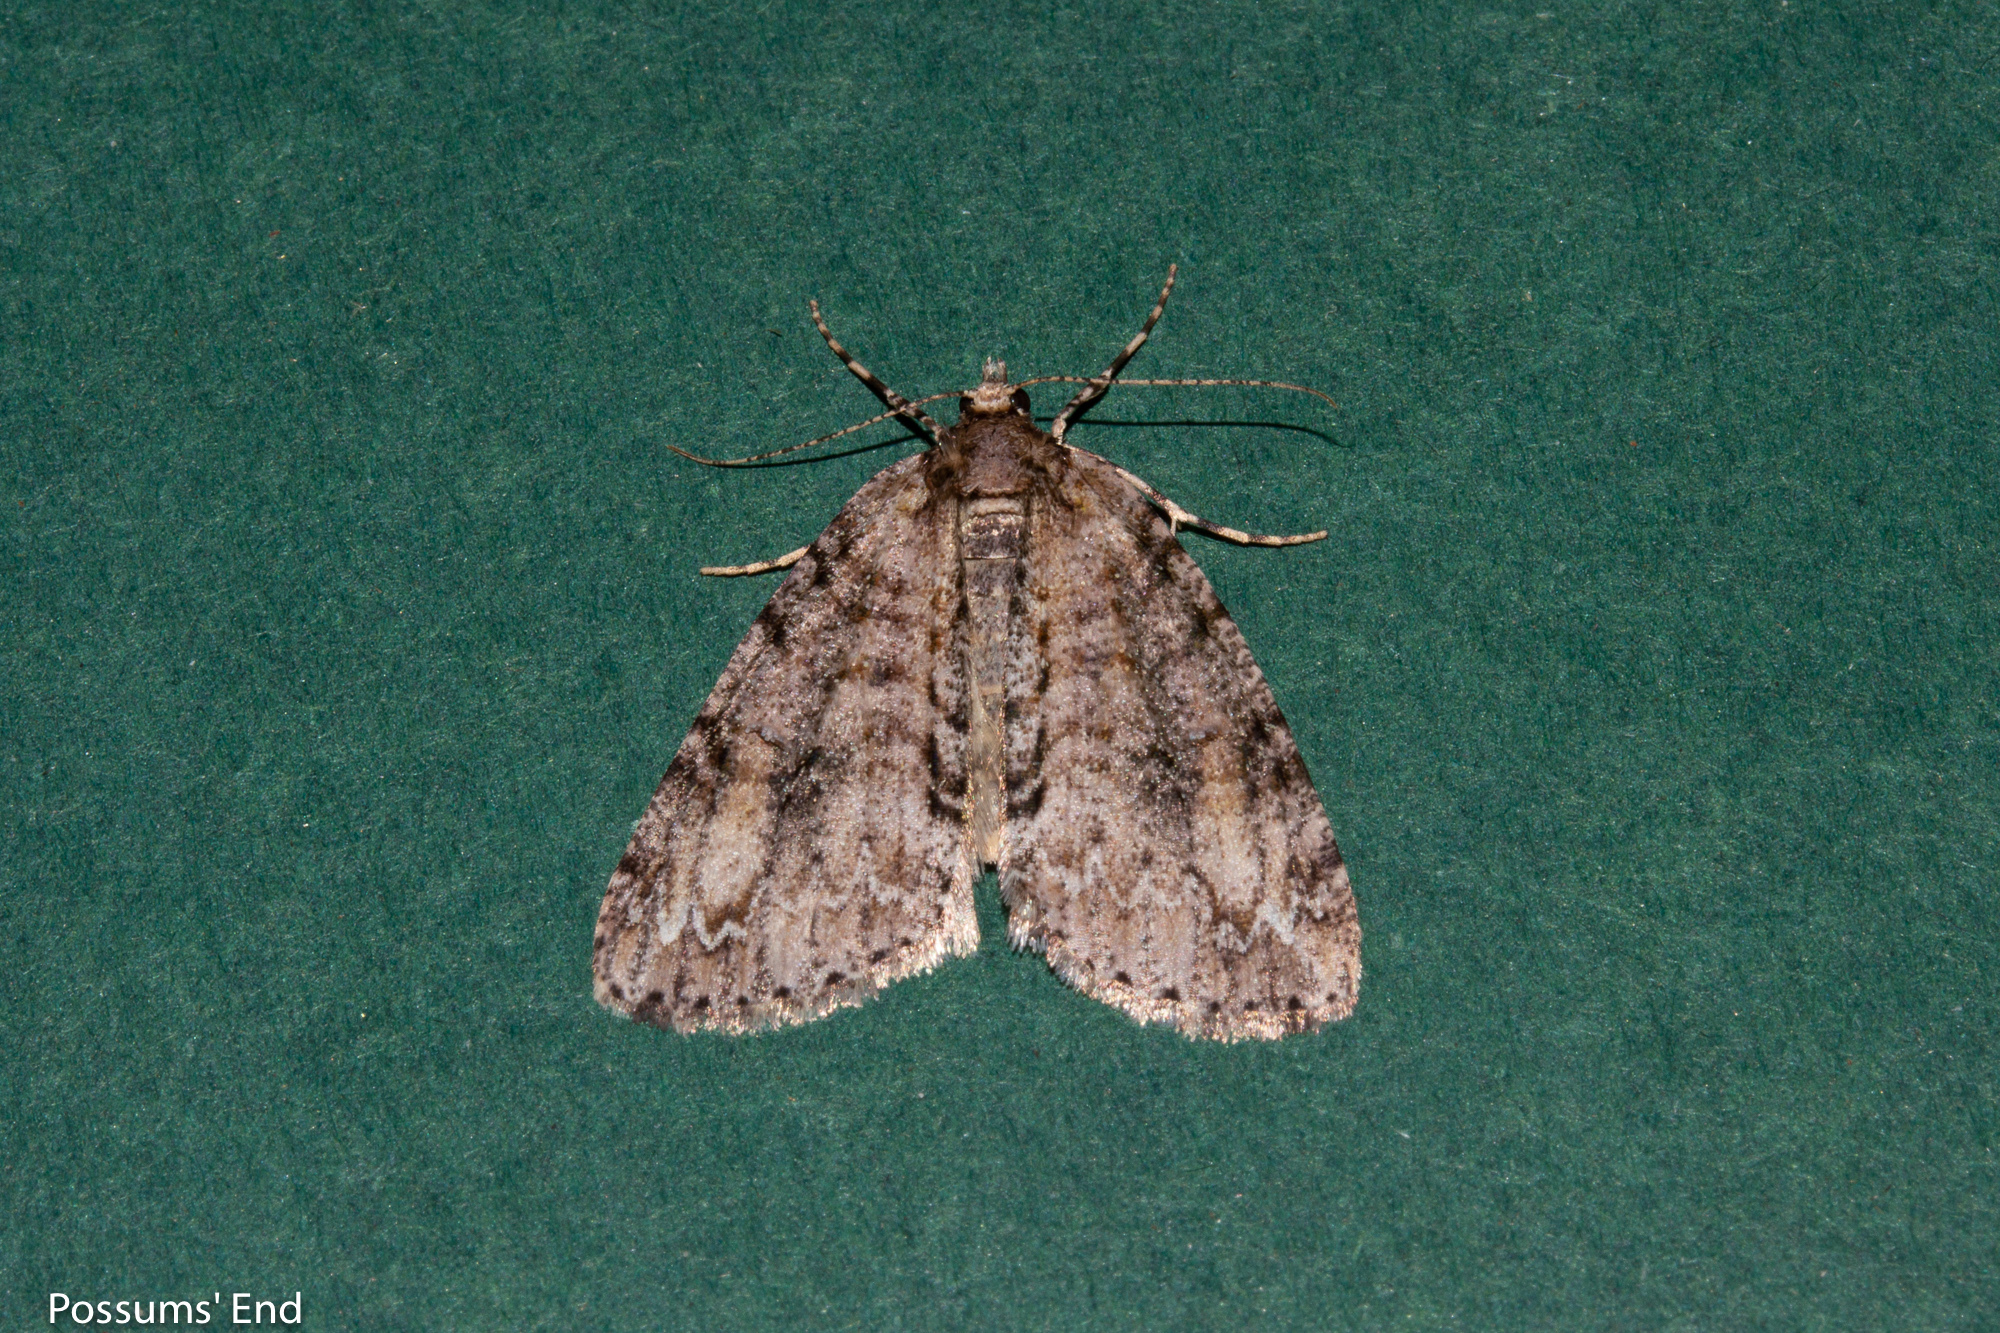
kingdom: Animalia
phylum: Arthropoda
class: Insecta
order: Lepidoptera
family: Geometridae
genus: Pseudocoremia
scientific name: Pseudocoremia suavis
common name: Common forest looper
